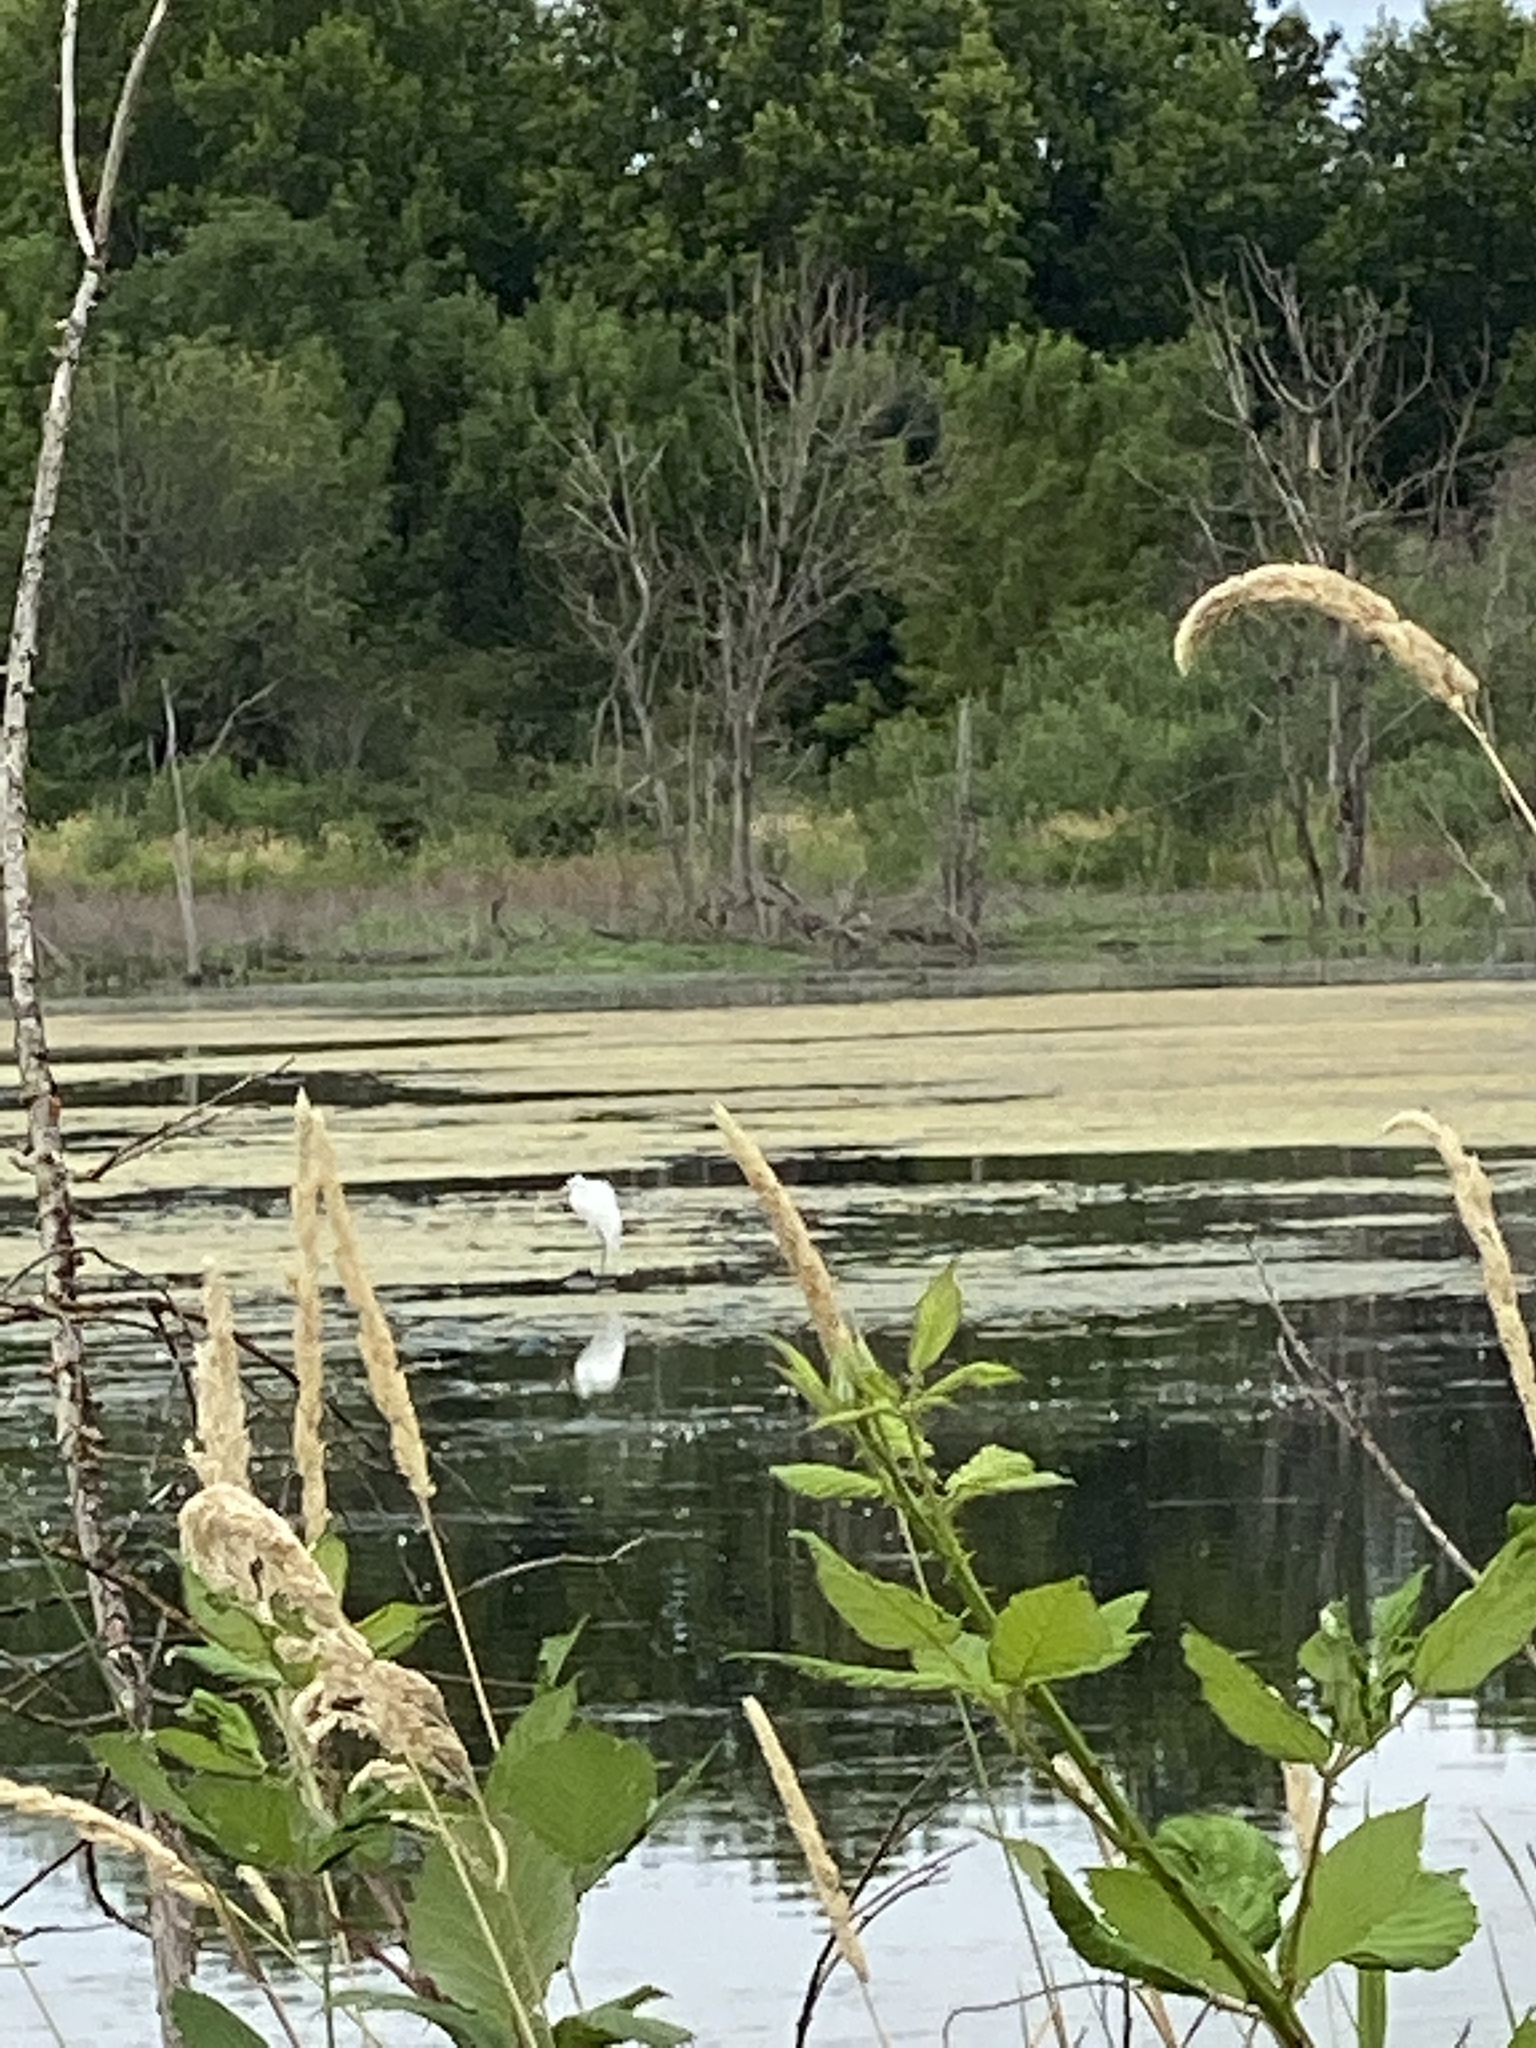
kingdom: Animalia
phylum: Chordata
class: Aves
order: Pelecaniformes
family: Ardeidae
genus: Ardea
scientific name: Ardea alba
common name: Great egret
